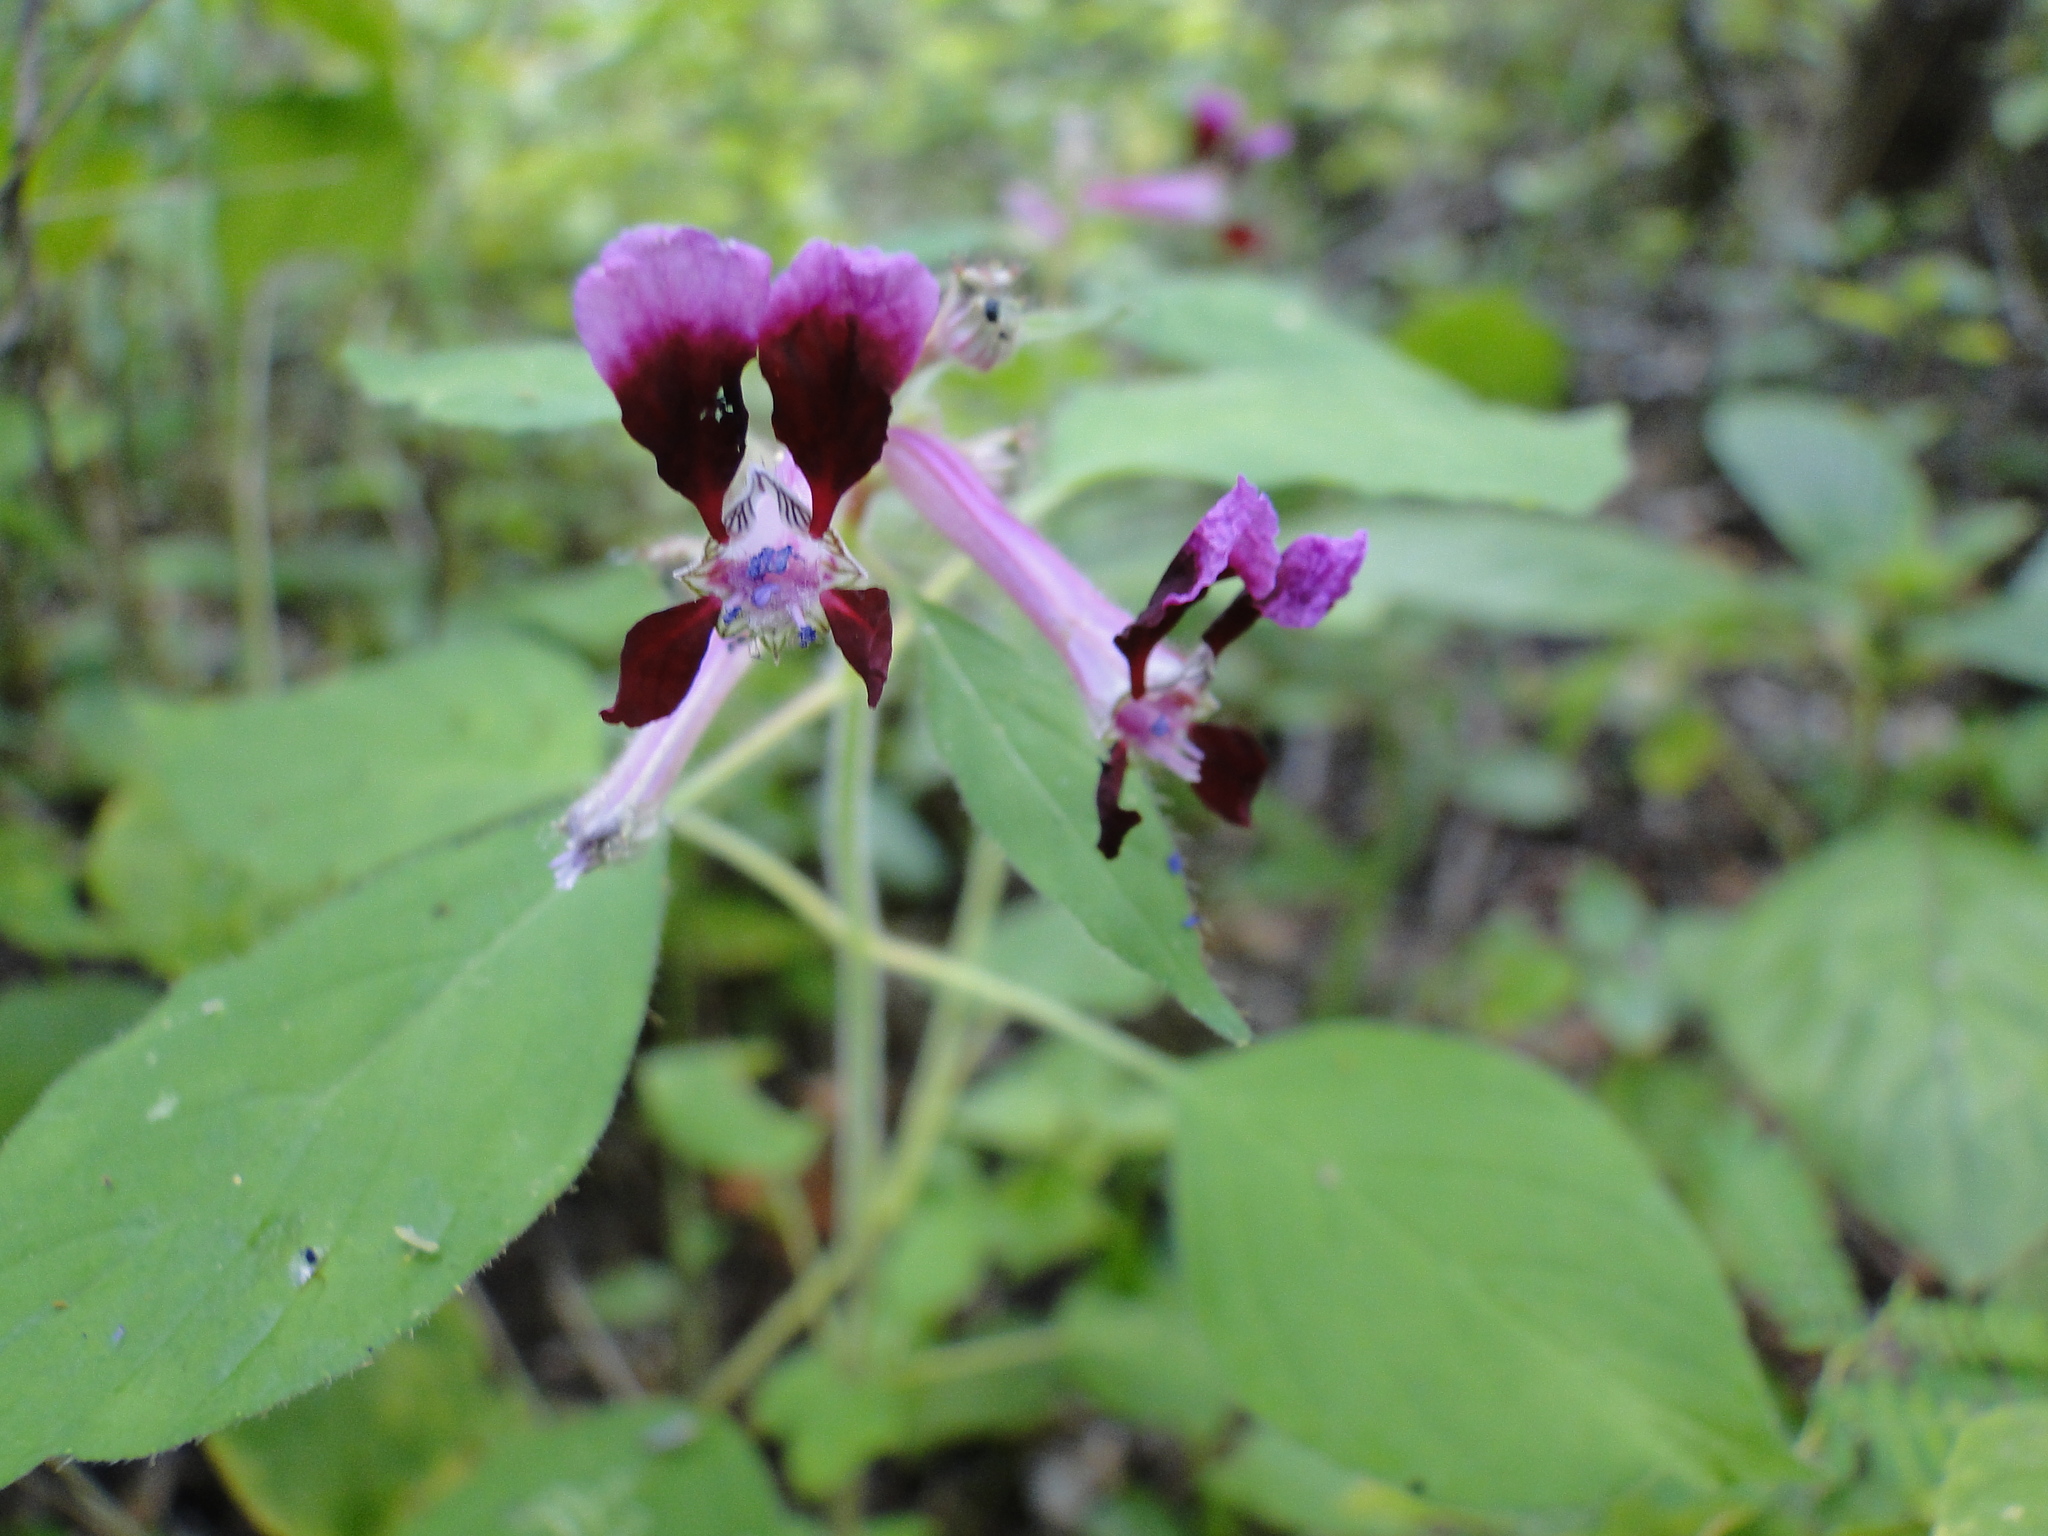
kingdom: Plantae
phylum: Tracheophyta
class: Magnoliopsida
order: Myrtales
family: Lythraceae
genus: Cuphea
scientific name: Cuphea koehneana
